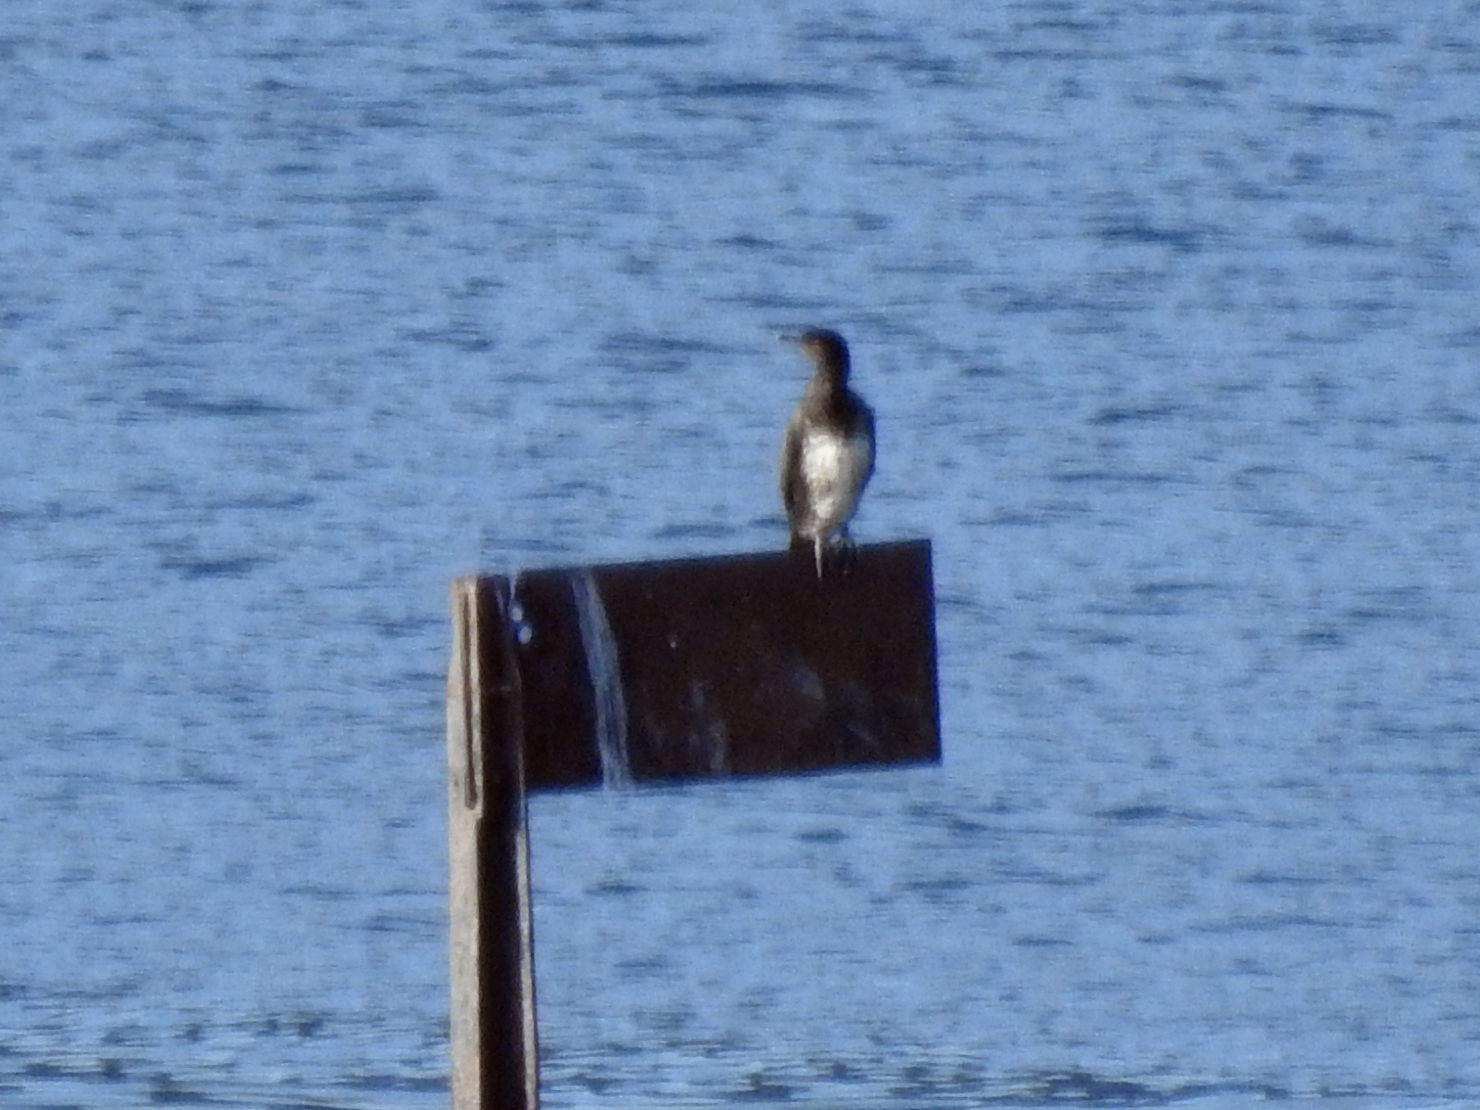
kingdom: Animalia
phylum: Chordata
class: Aves
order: Suliformes
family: Phalacrocoracidae
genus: Phalacrocorax
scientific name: Phalacrocorax carbo
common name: Great cormorant
